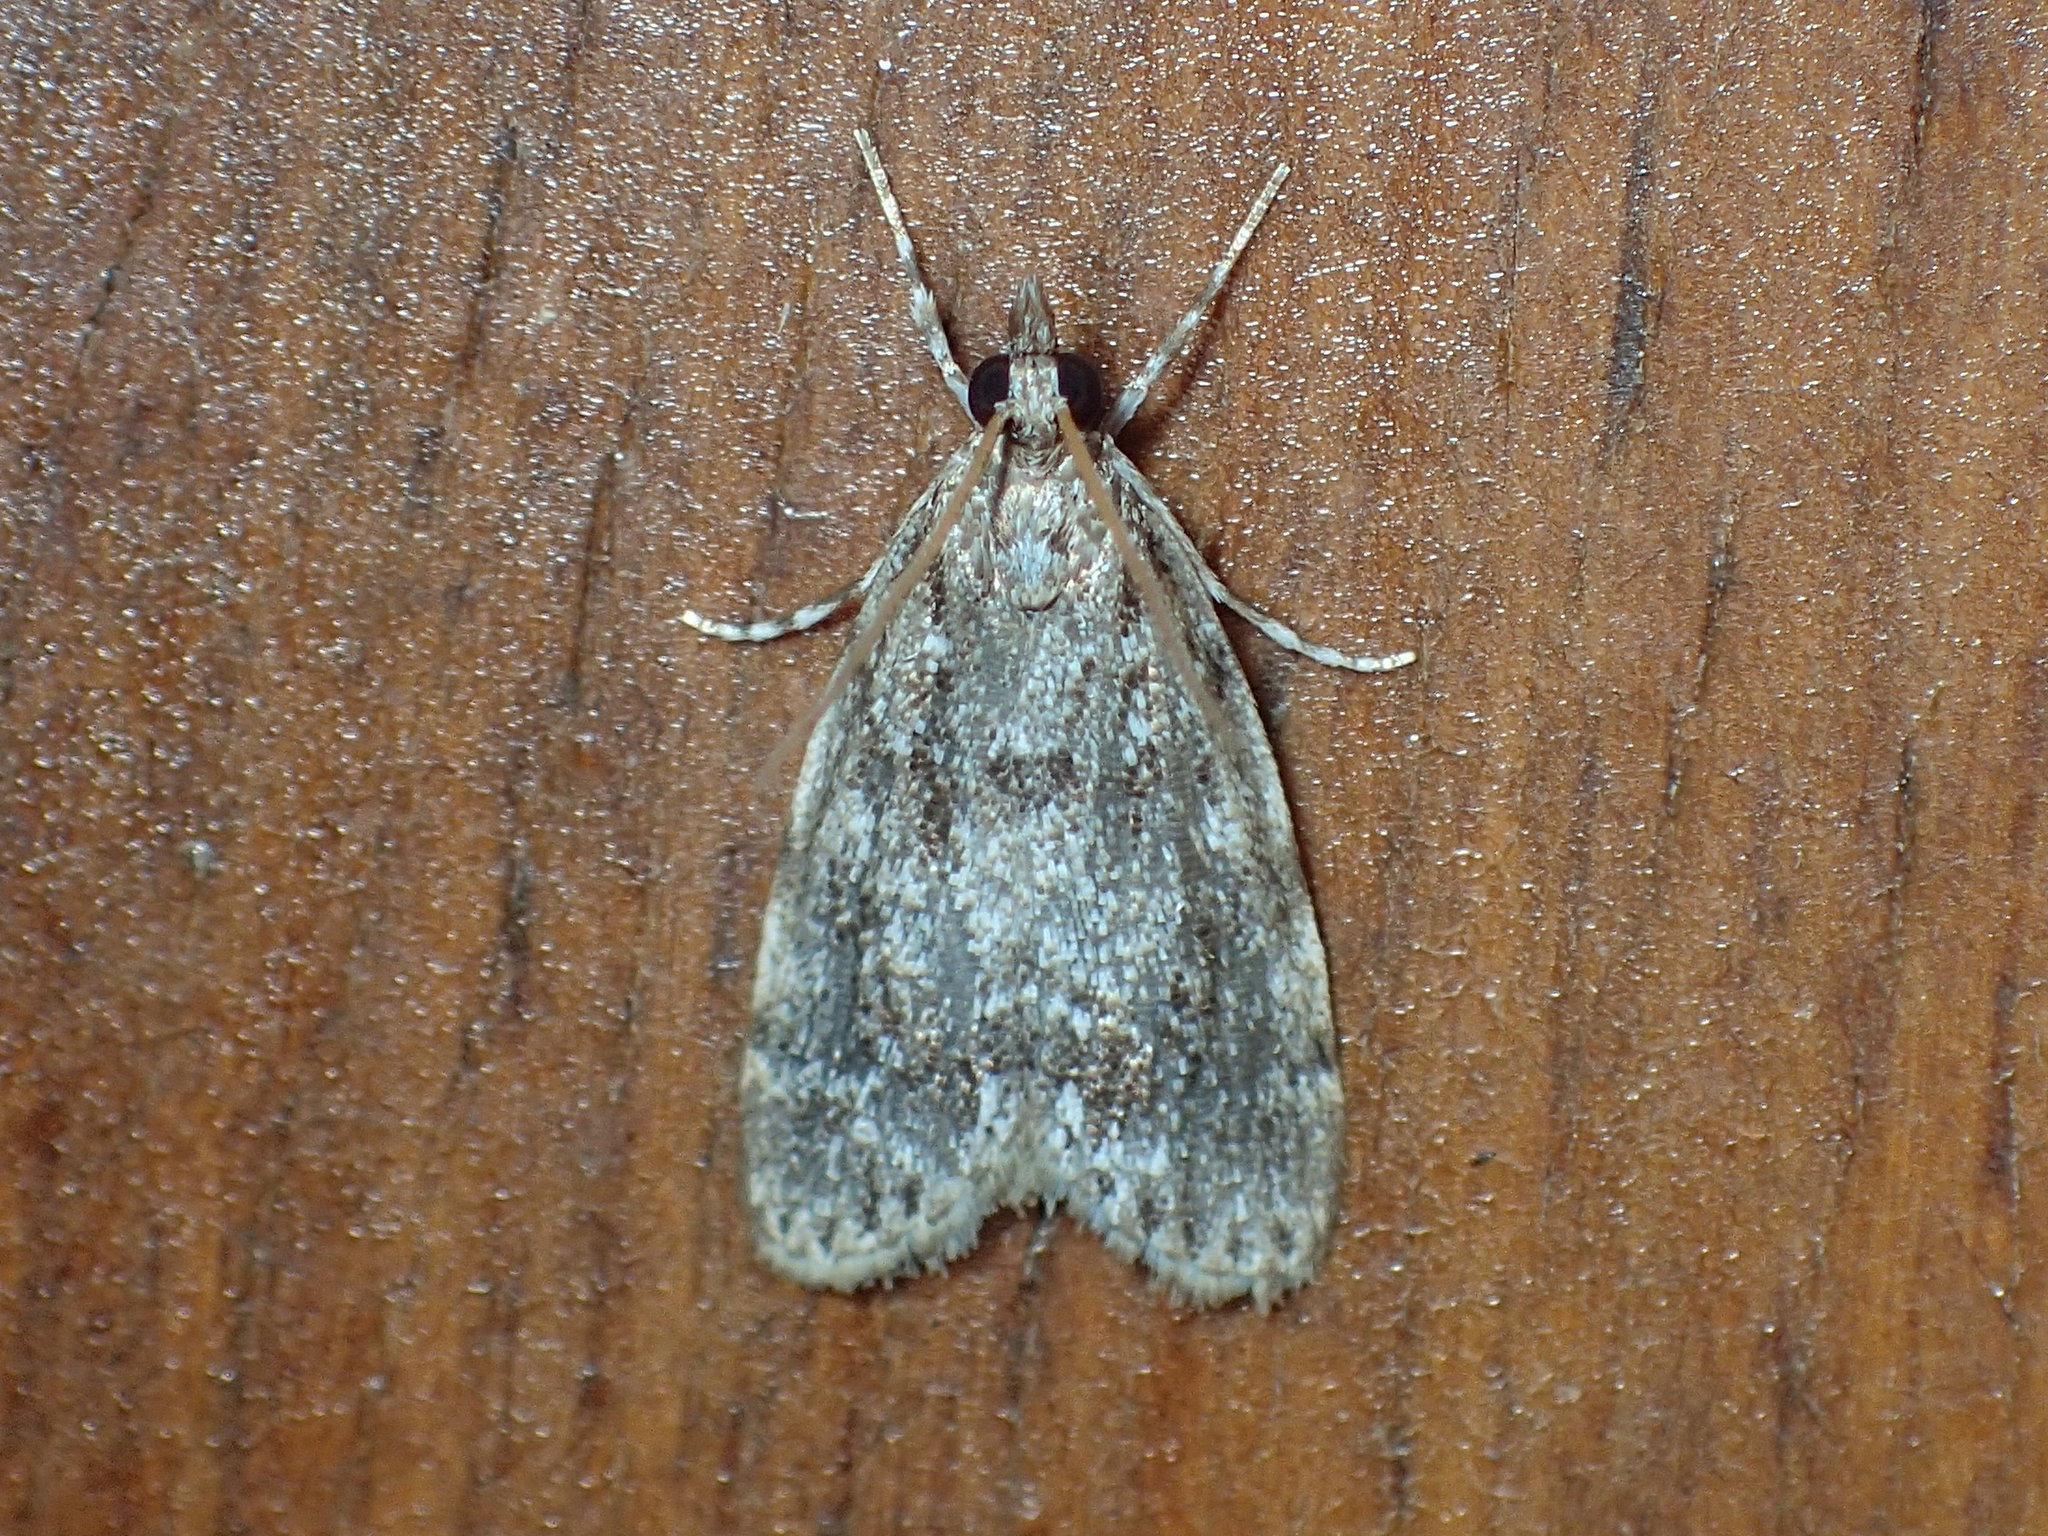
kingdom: Animalia
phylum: Arthropoda
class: Insecta
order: Lepidoptera
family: Crambidae
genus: Scoparia
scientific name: Scoparia basalis
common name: Many-spotted scoparia moth
